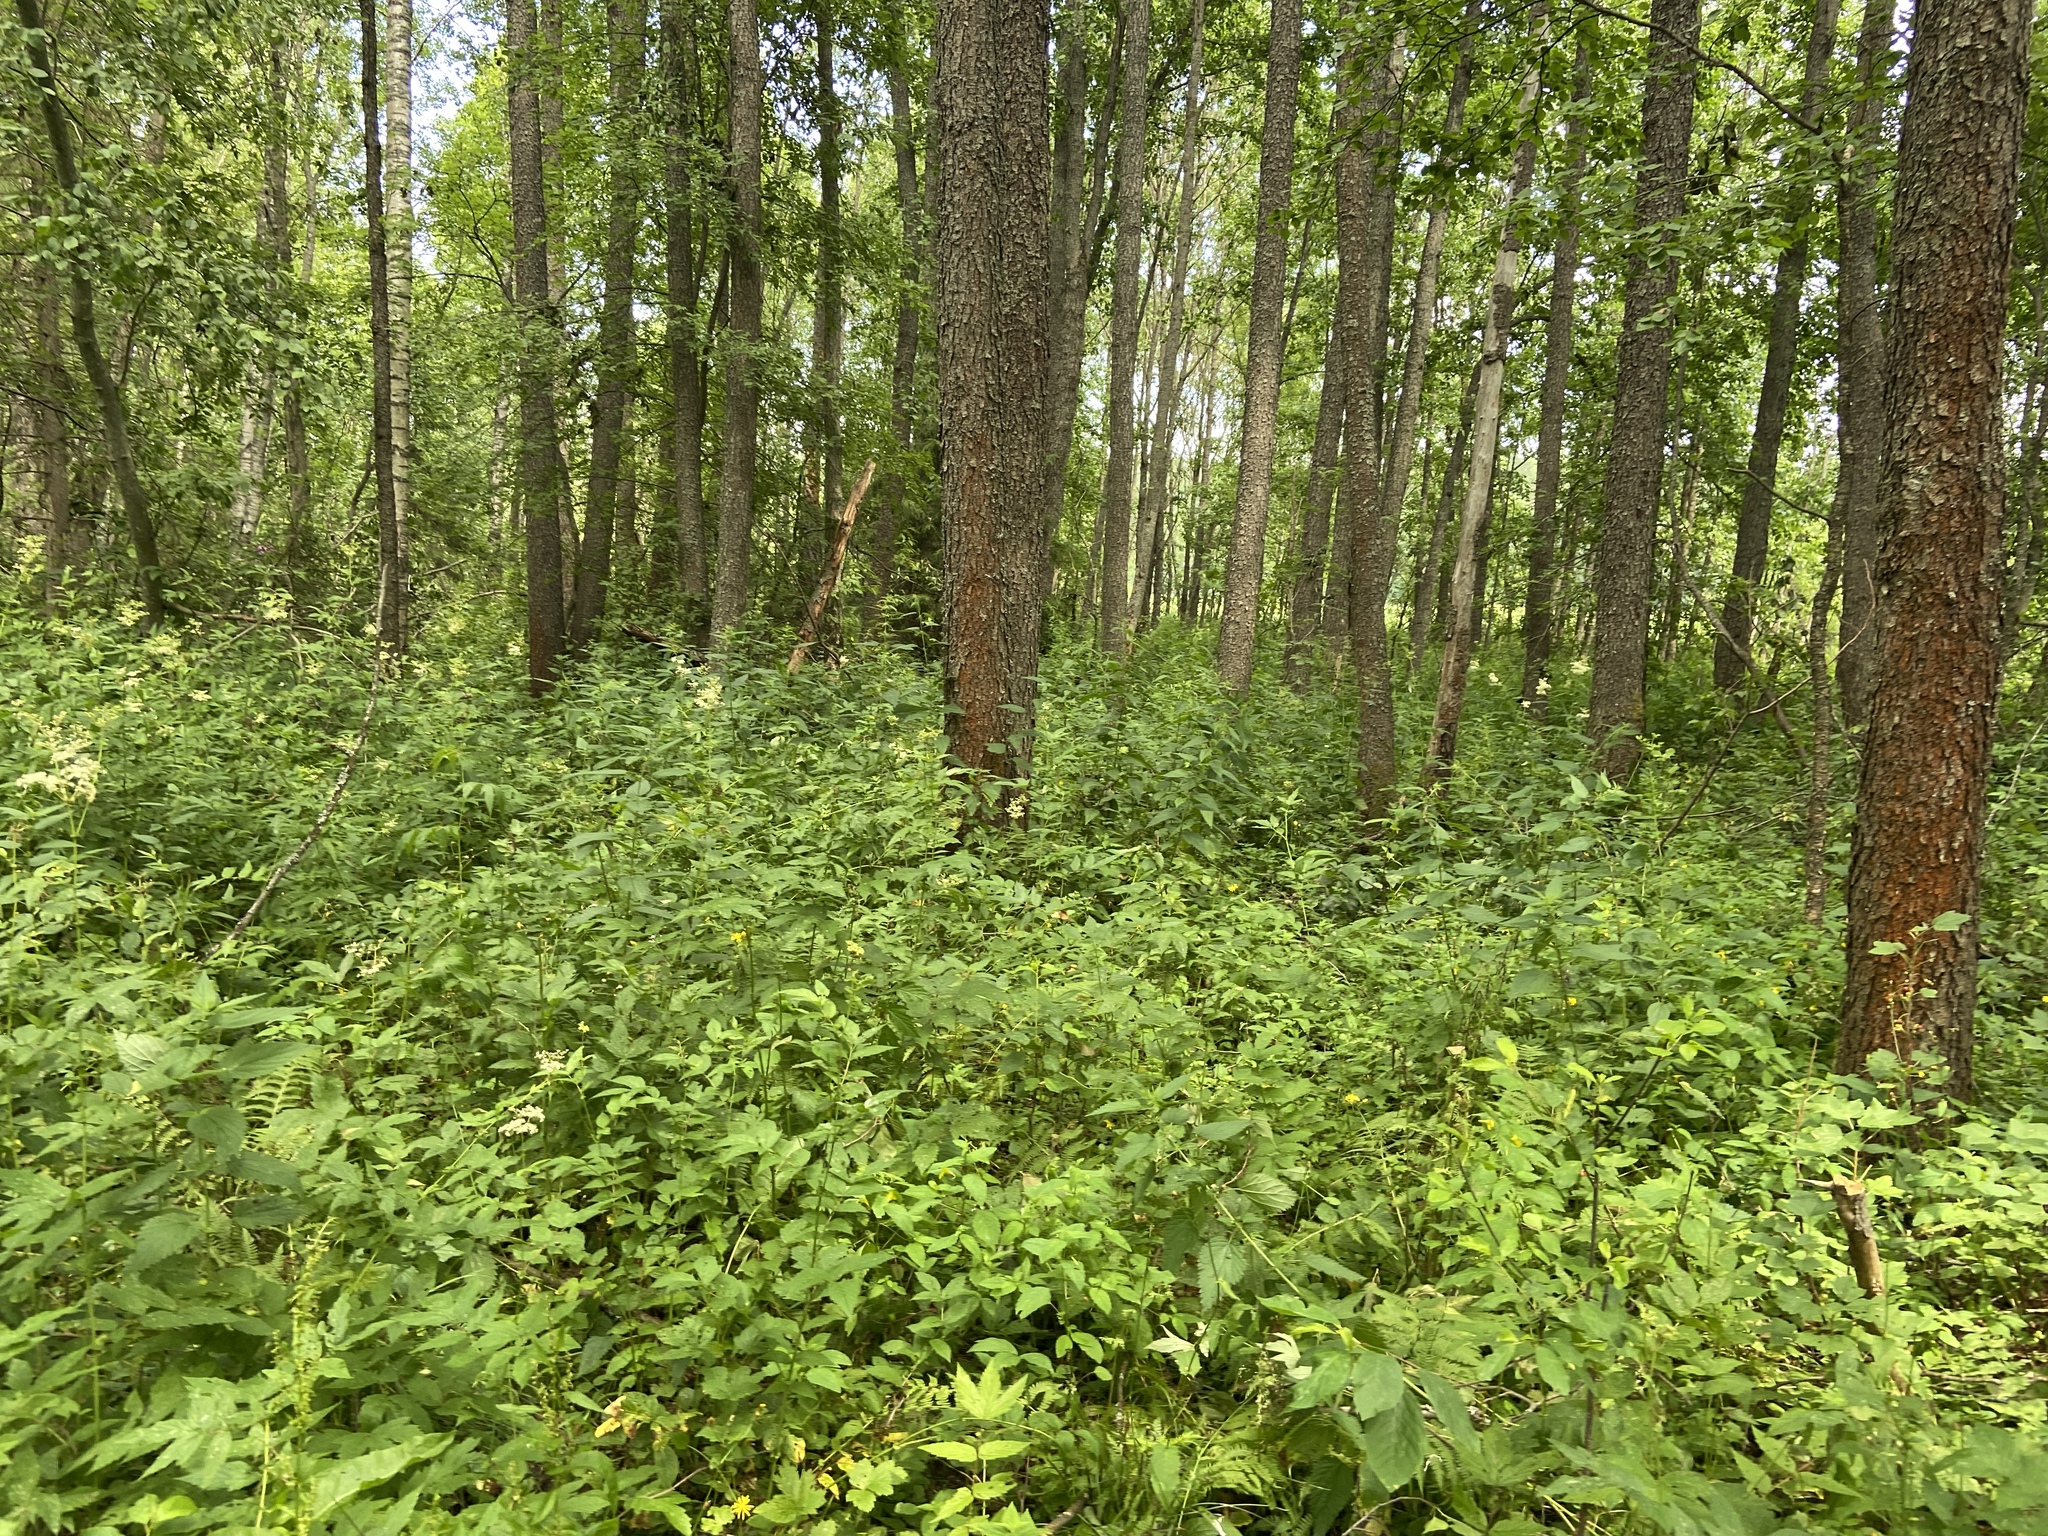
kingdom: Plantae
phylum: Tracheophyta
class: Magnoliopsida
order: Fagales
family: Betulaceae
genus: Alnus
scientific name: Alnus glutinosa
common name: Black alder
